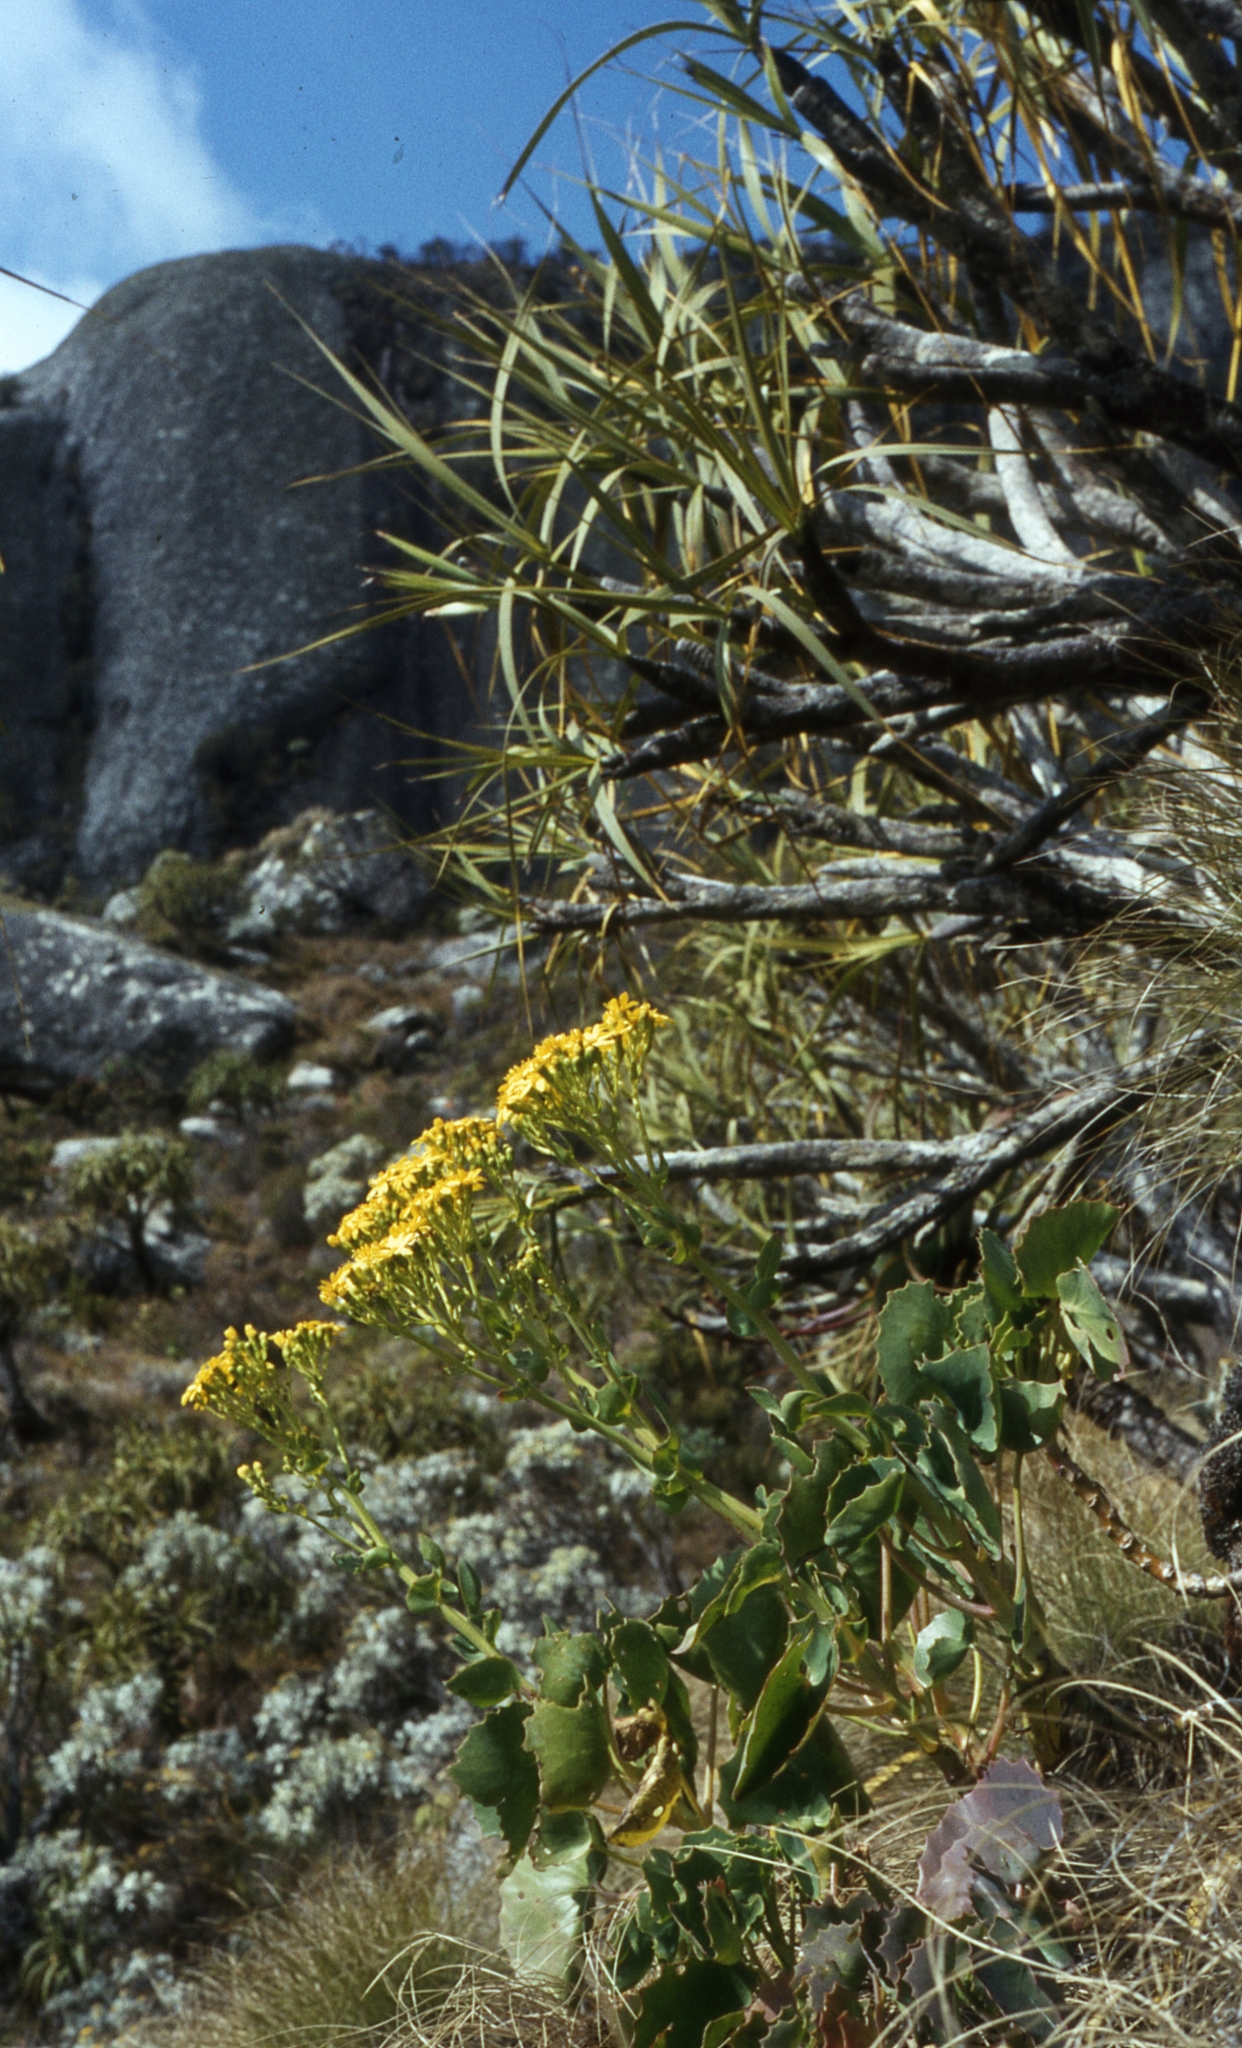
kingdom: Plantae
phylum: Tracheophyta
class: Liliopsida
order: Pandanales
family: Velloziaceae
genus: Xerophyta
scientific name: Xerophyta splendens
